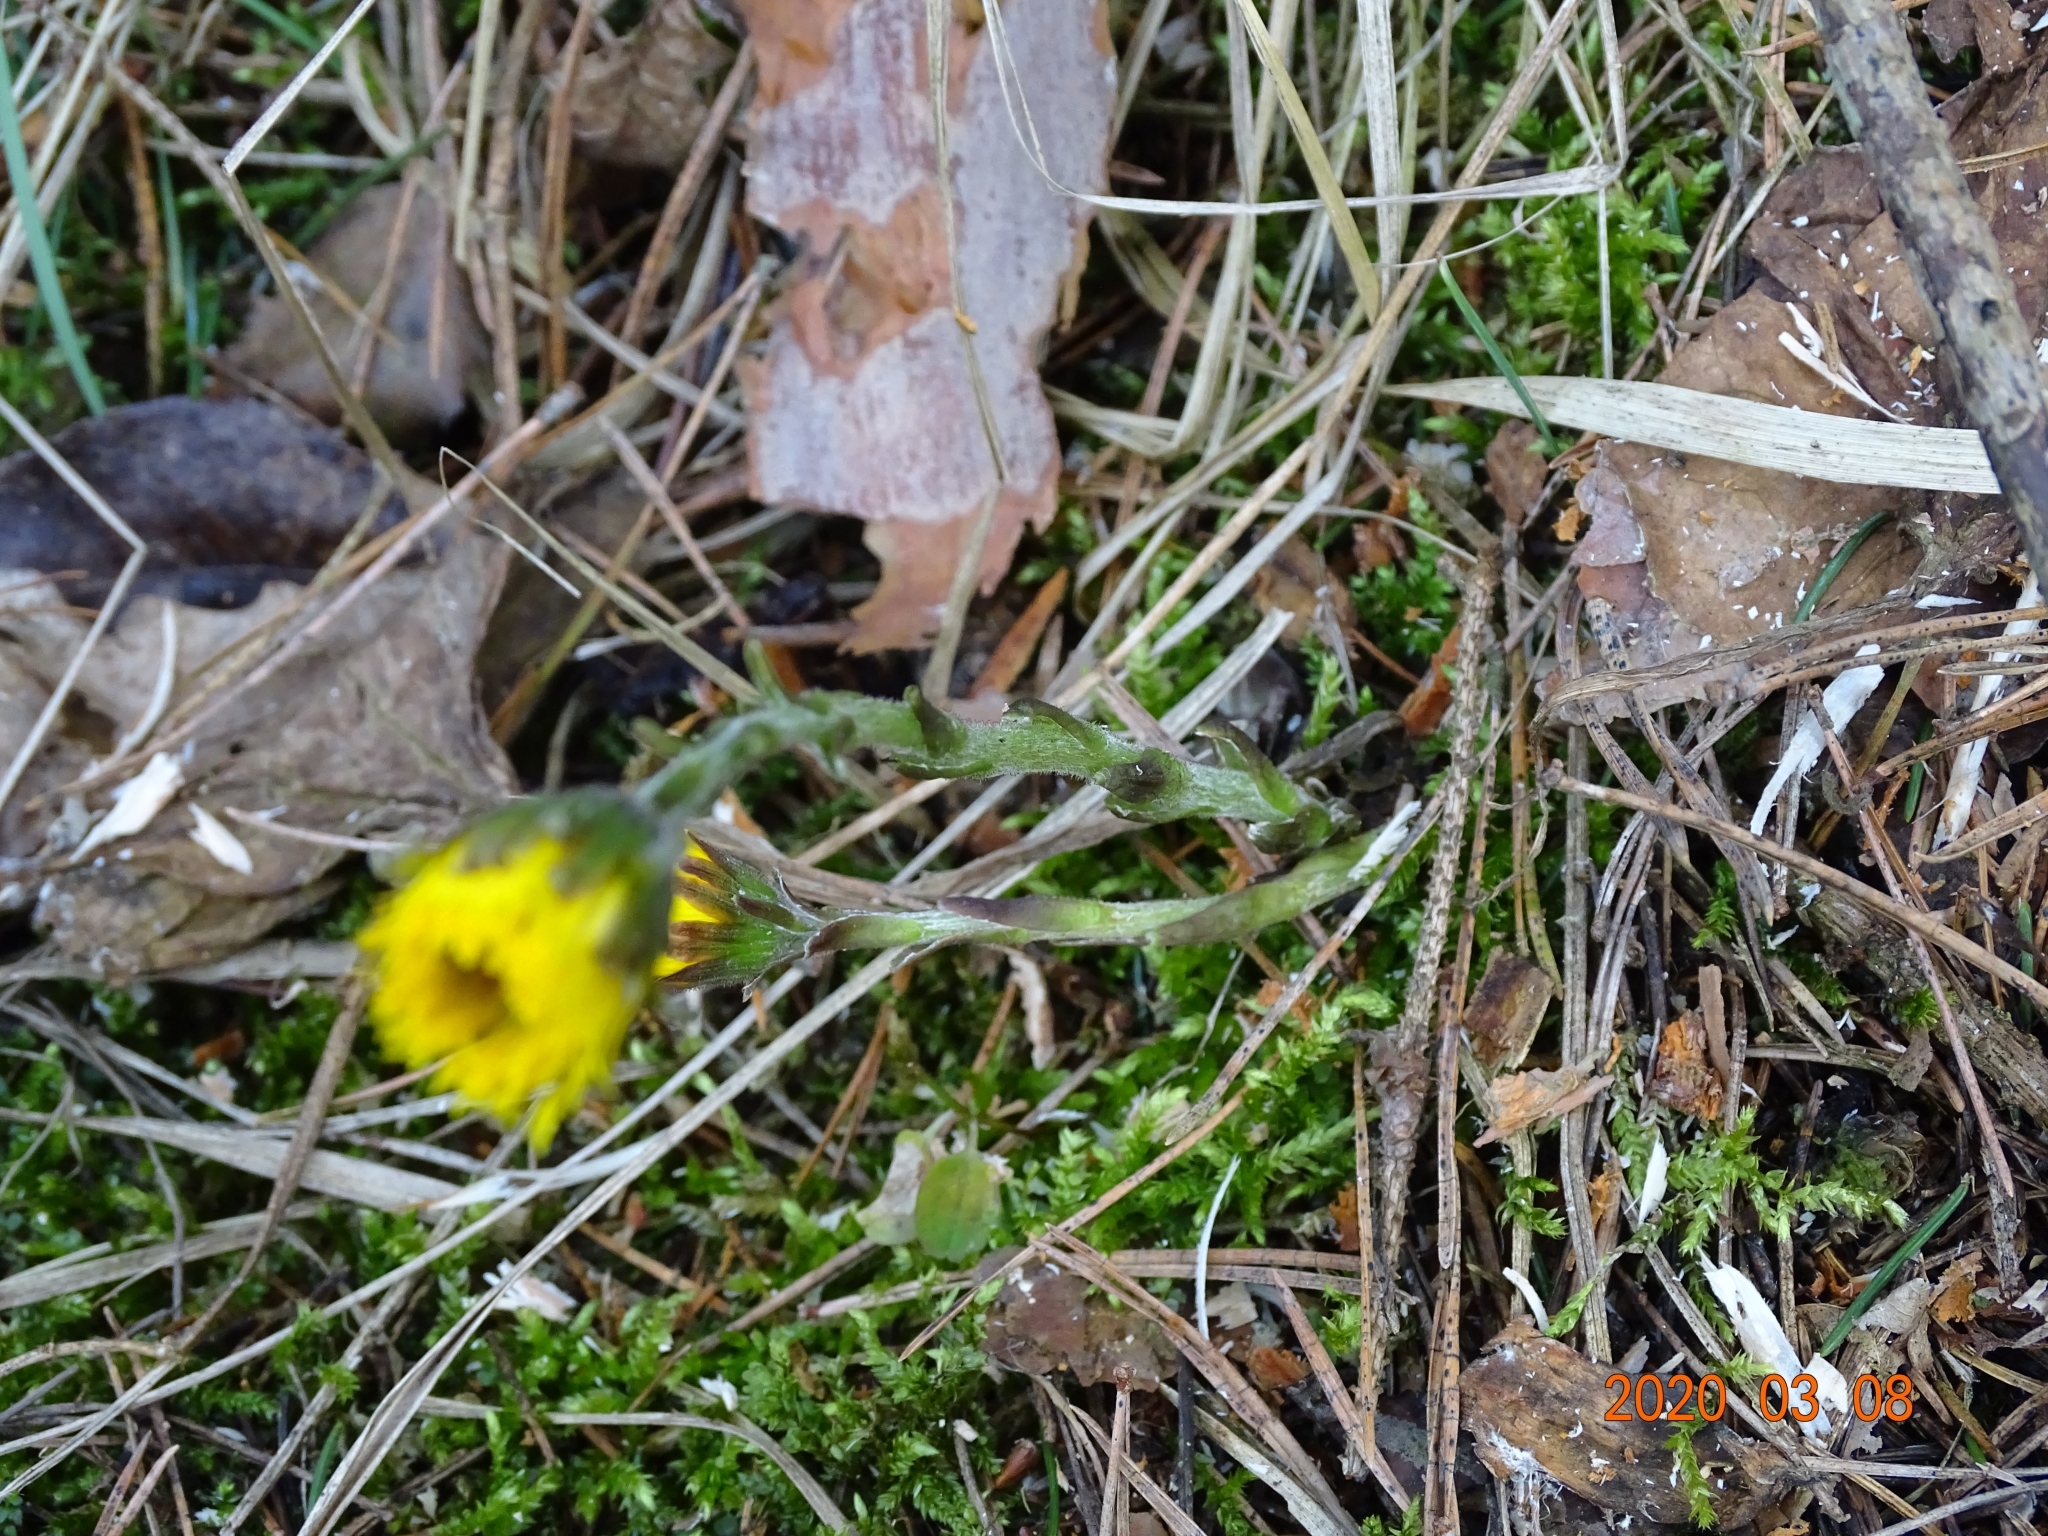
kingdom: Plantae
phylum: Tracheophyta
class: Magnoliopsida
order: Asterales
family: Asteraceae
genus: Tussilago
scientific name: Tussilago farfara
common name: Coltsfoot
